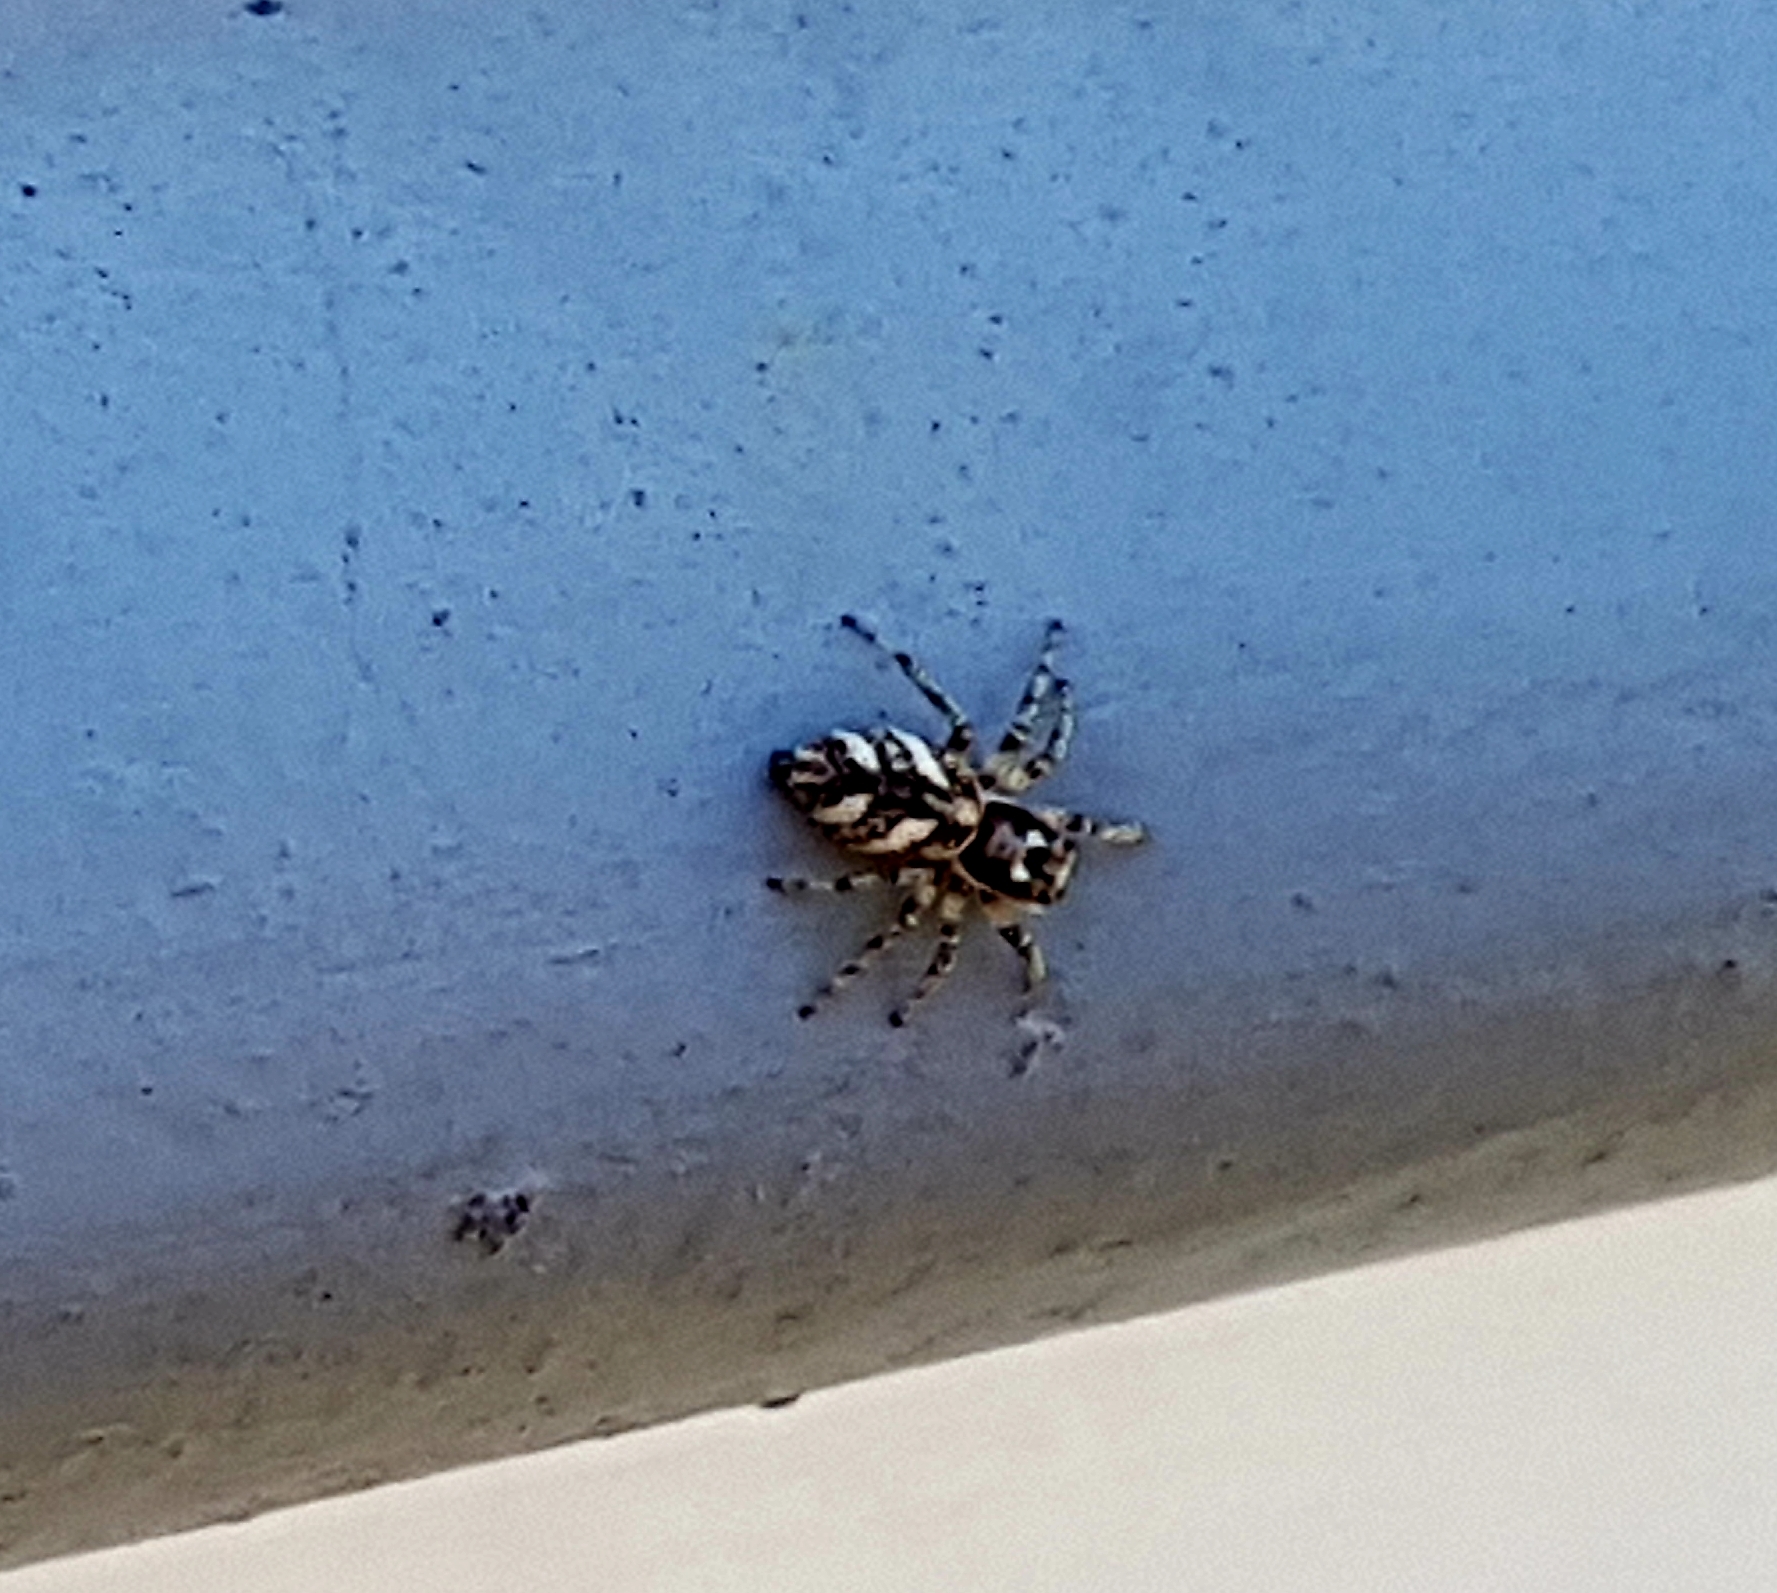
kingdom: Animalia
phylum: Arthropoda
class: Arachnida
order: Araneae
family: Salticidae
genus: Salticus
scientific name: Salticus scenicus
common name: Zebra jumper
